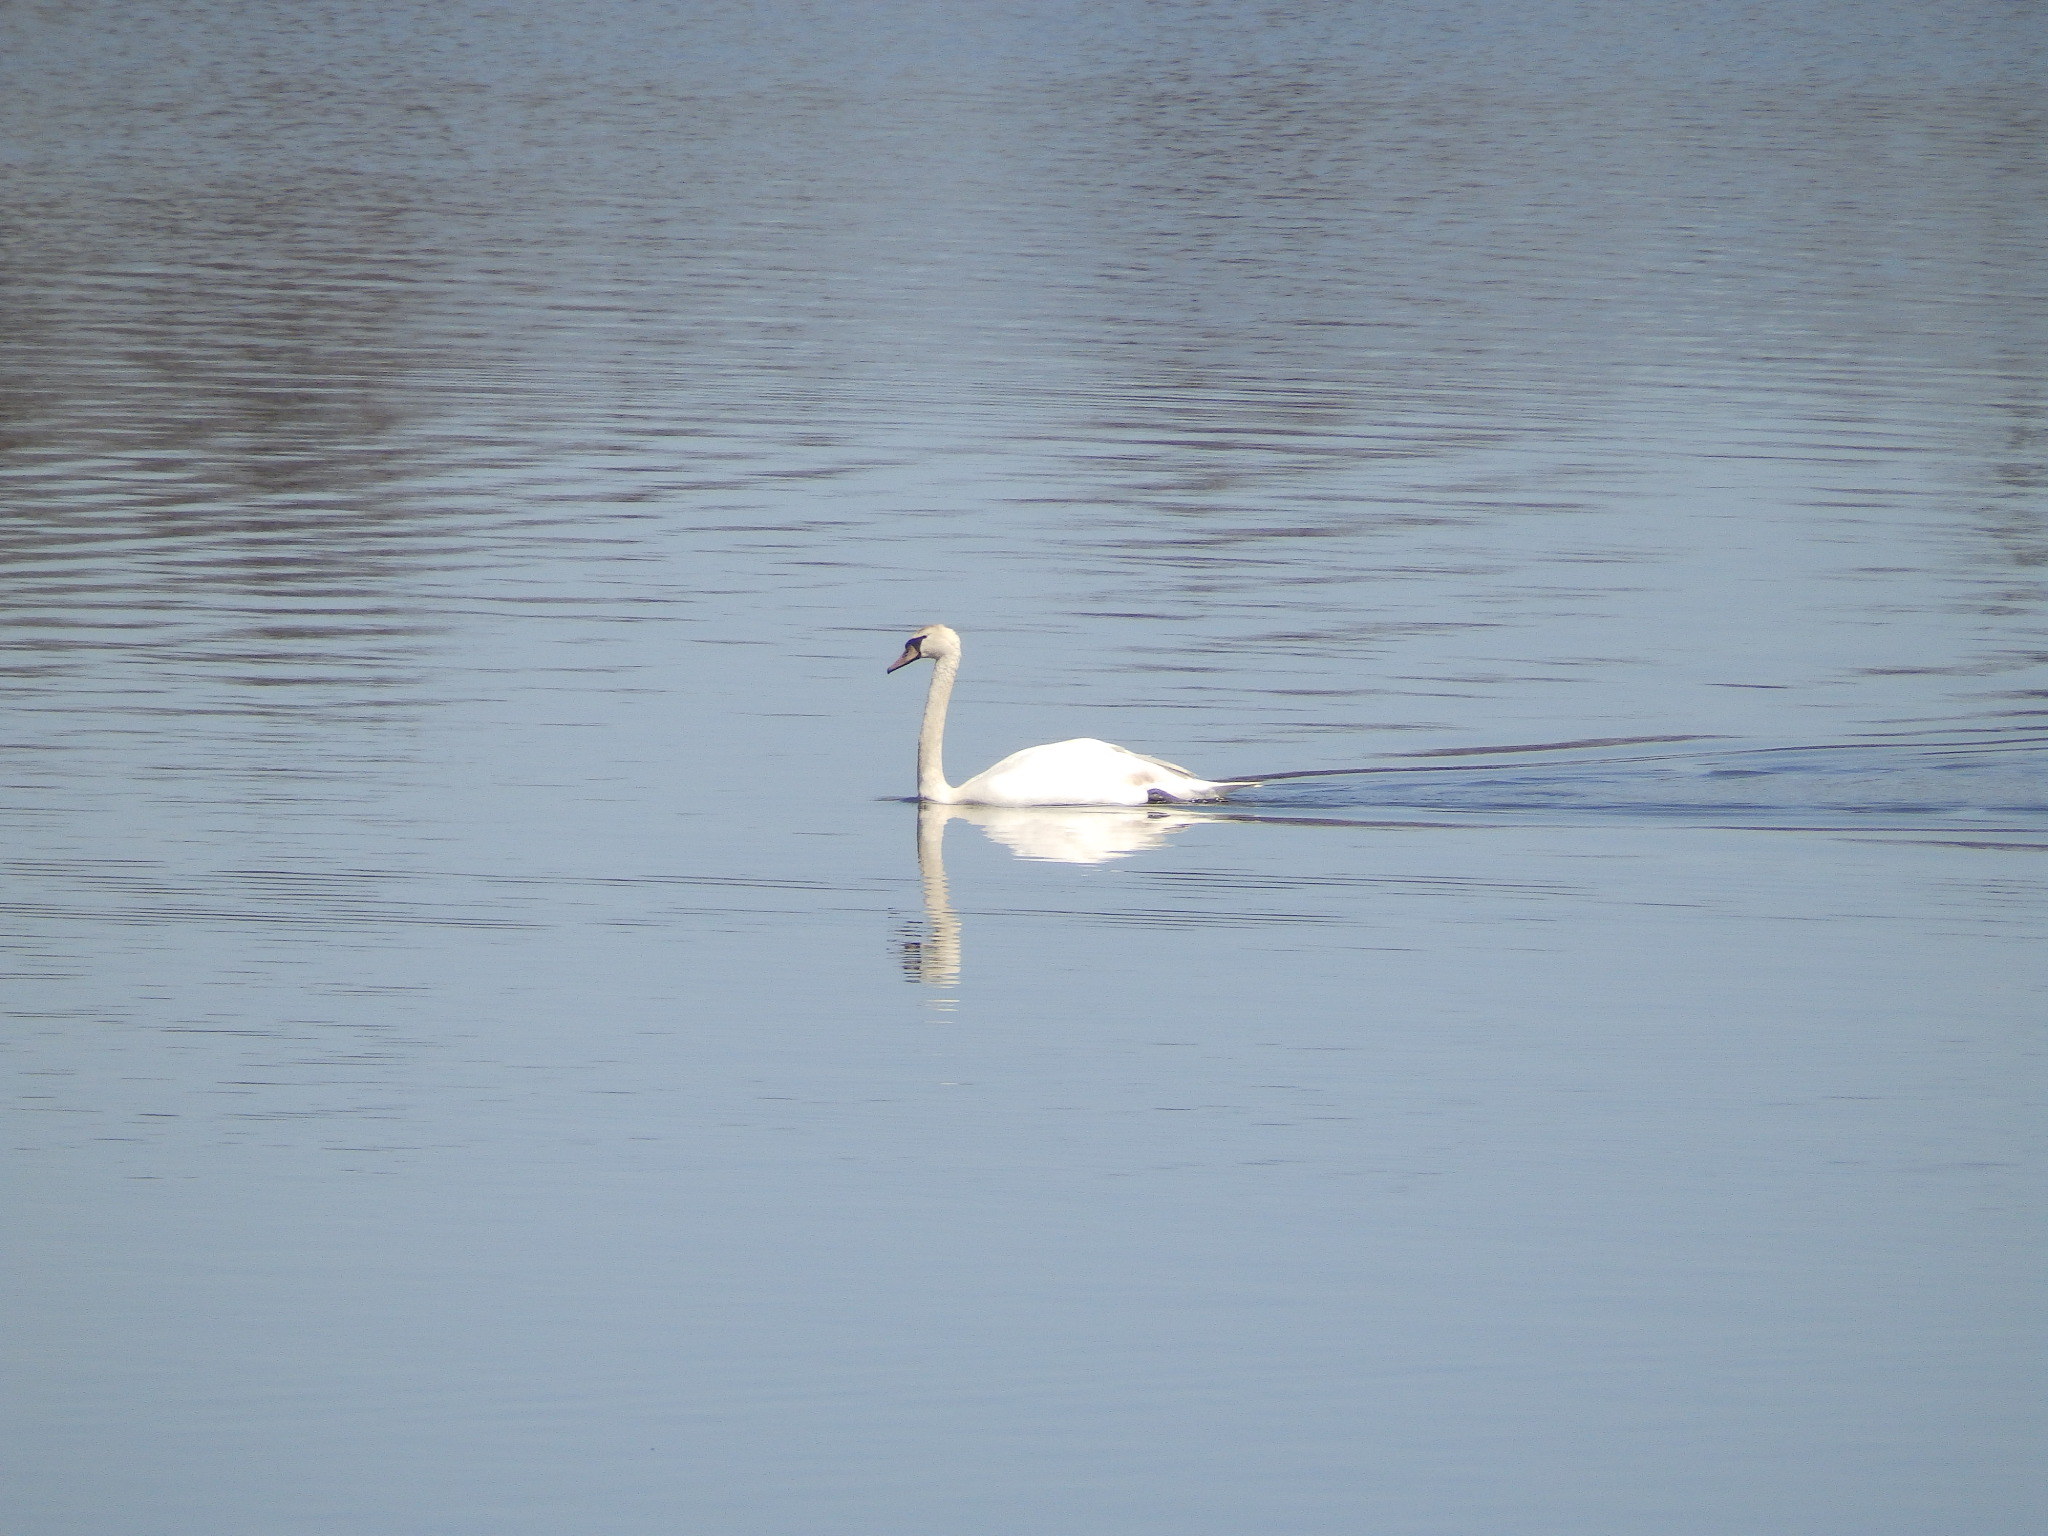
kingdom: Animalia
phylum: Chordata
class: Aves
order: Anseriformes
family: Anatidae
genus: Cygnus
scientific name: Cygnus olor
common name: Mute swan
